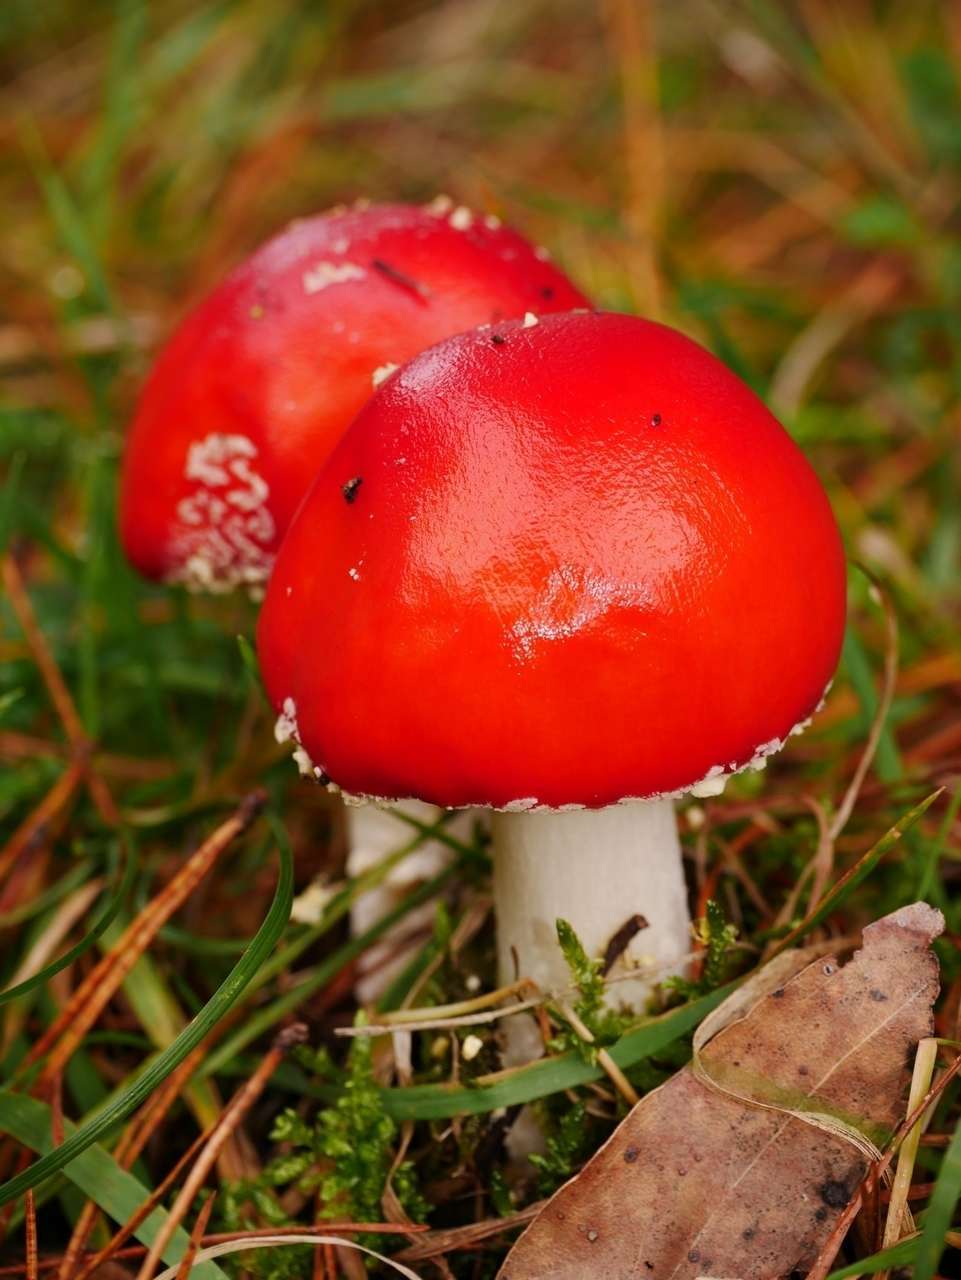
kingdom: Fungi
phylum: Basidiomycota
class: Agaricomycetes
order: Agaricales
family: Amanitaceae
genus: Amanita
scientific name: Amanita muscaria
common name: Fly agaric
